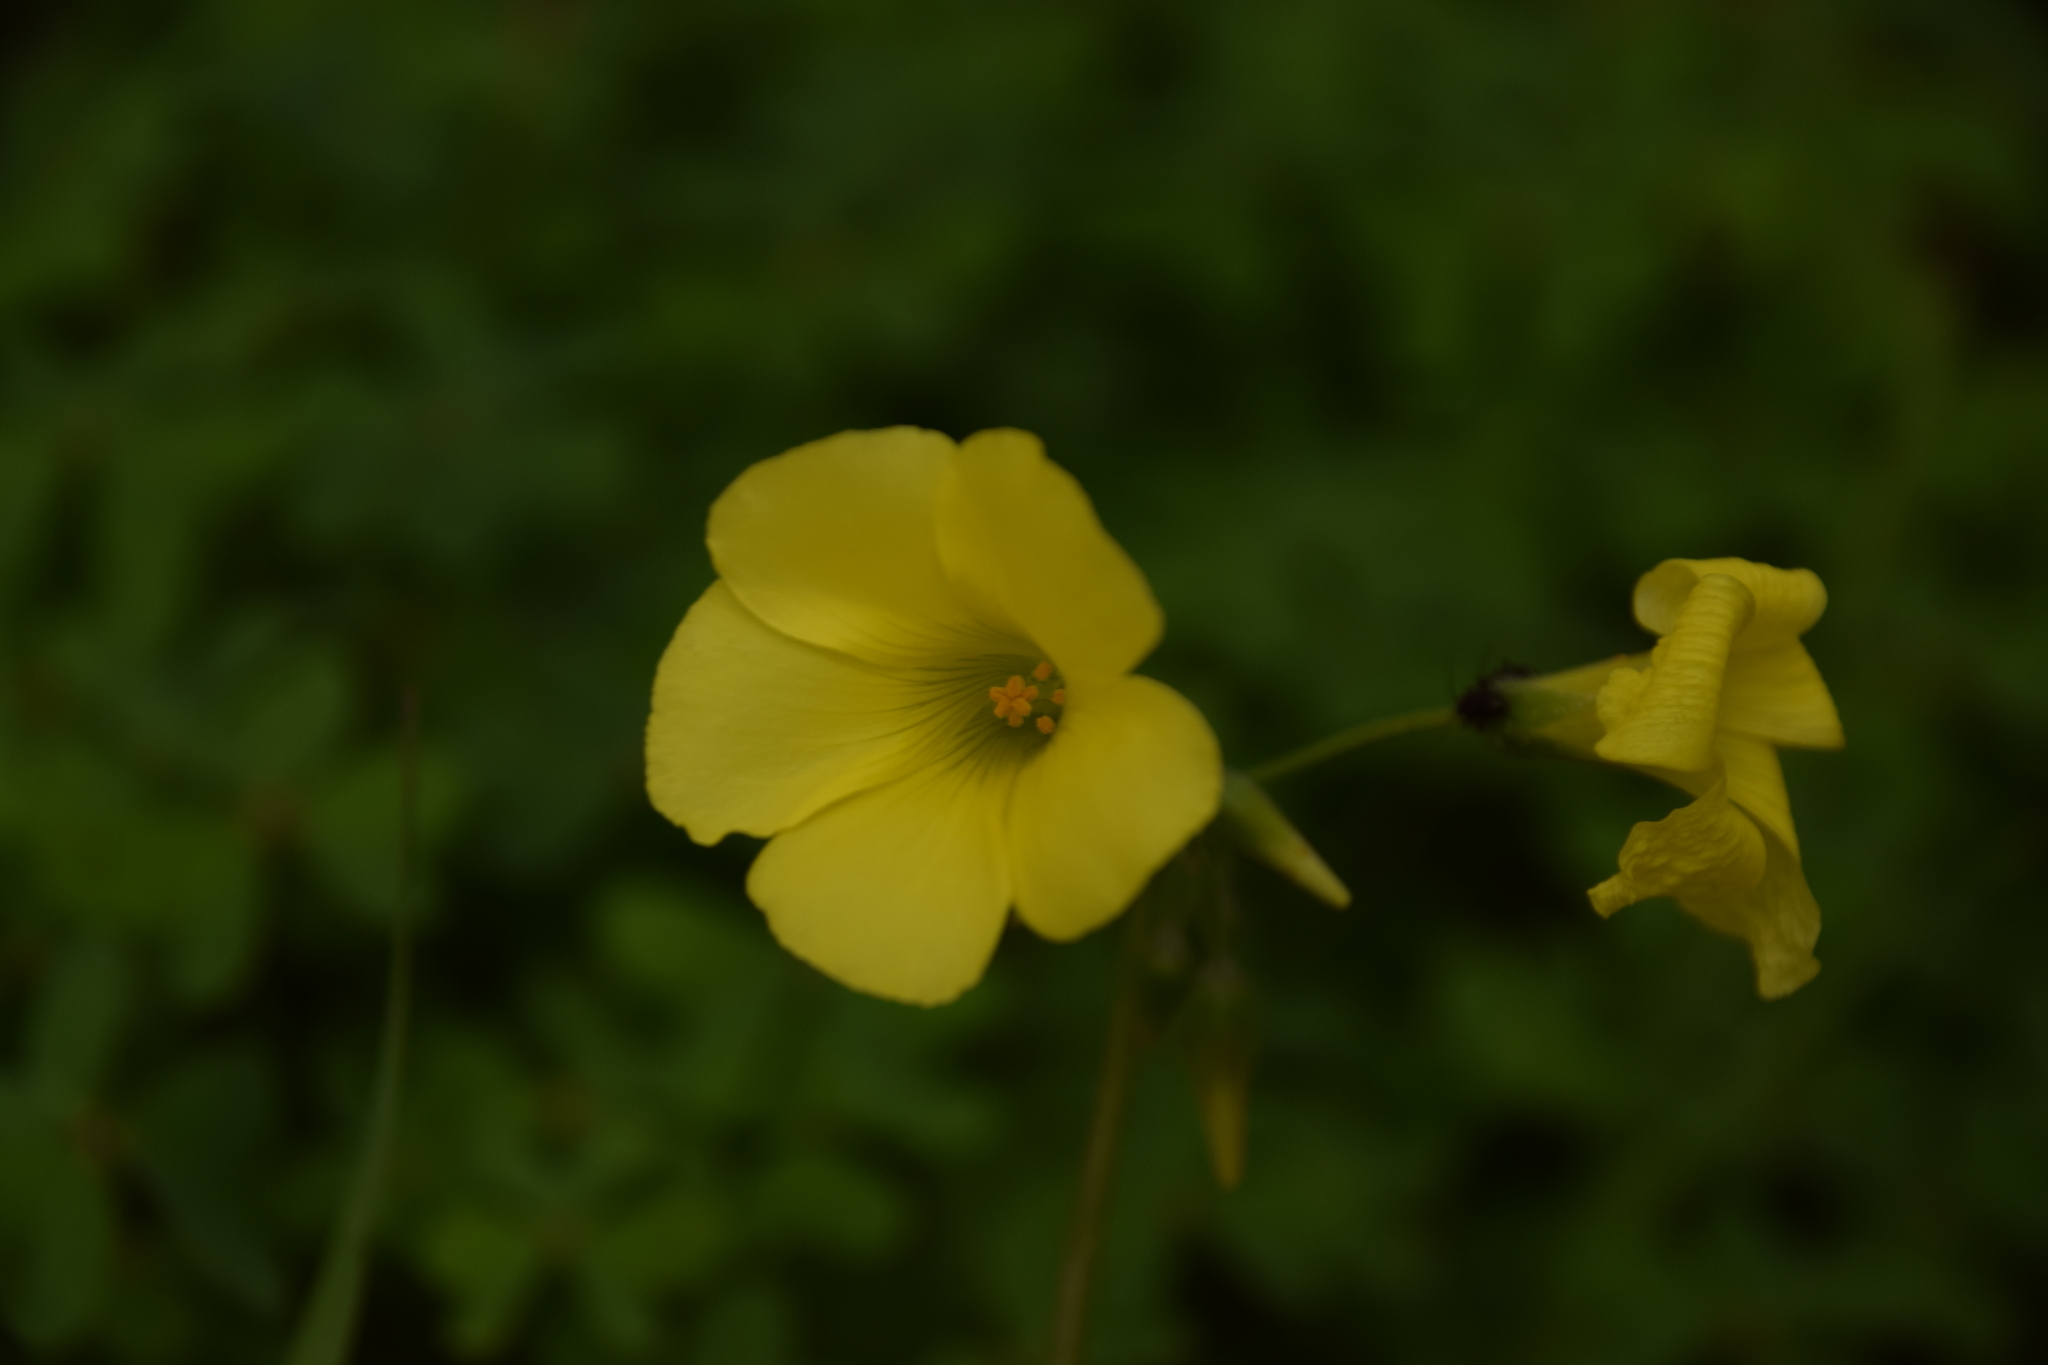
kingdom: Plantae
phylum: Tracheophyta
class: Magnoliopsida
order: Oxalidales
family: Oxalidaceae
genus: Oxalis
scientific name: Oxalis pes-caprae
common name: Bermuda-buttercup
